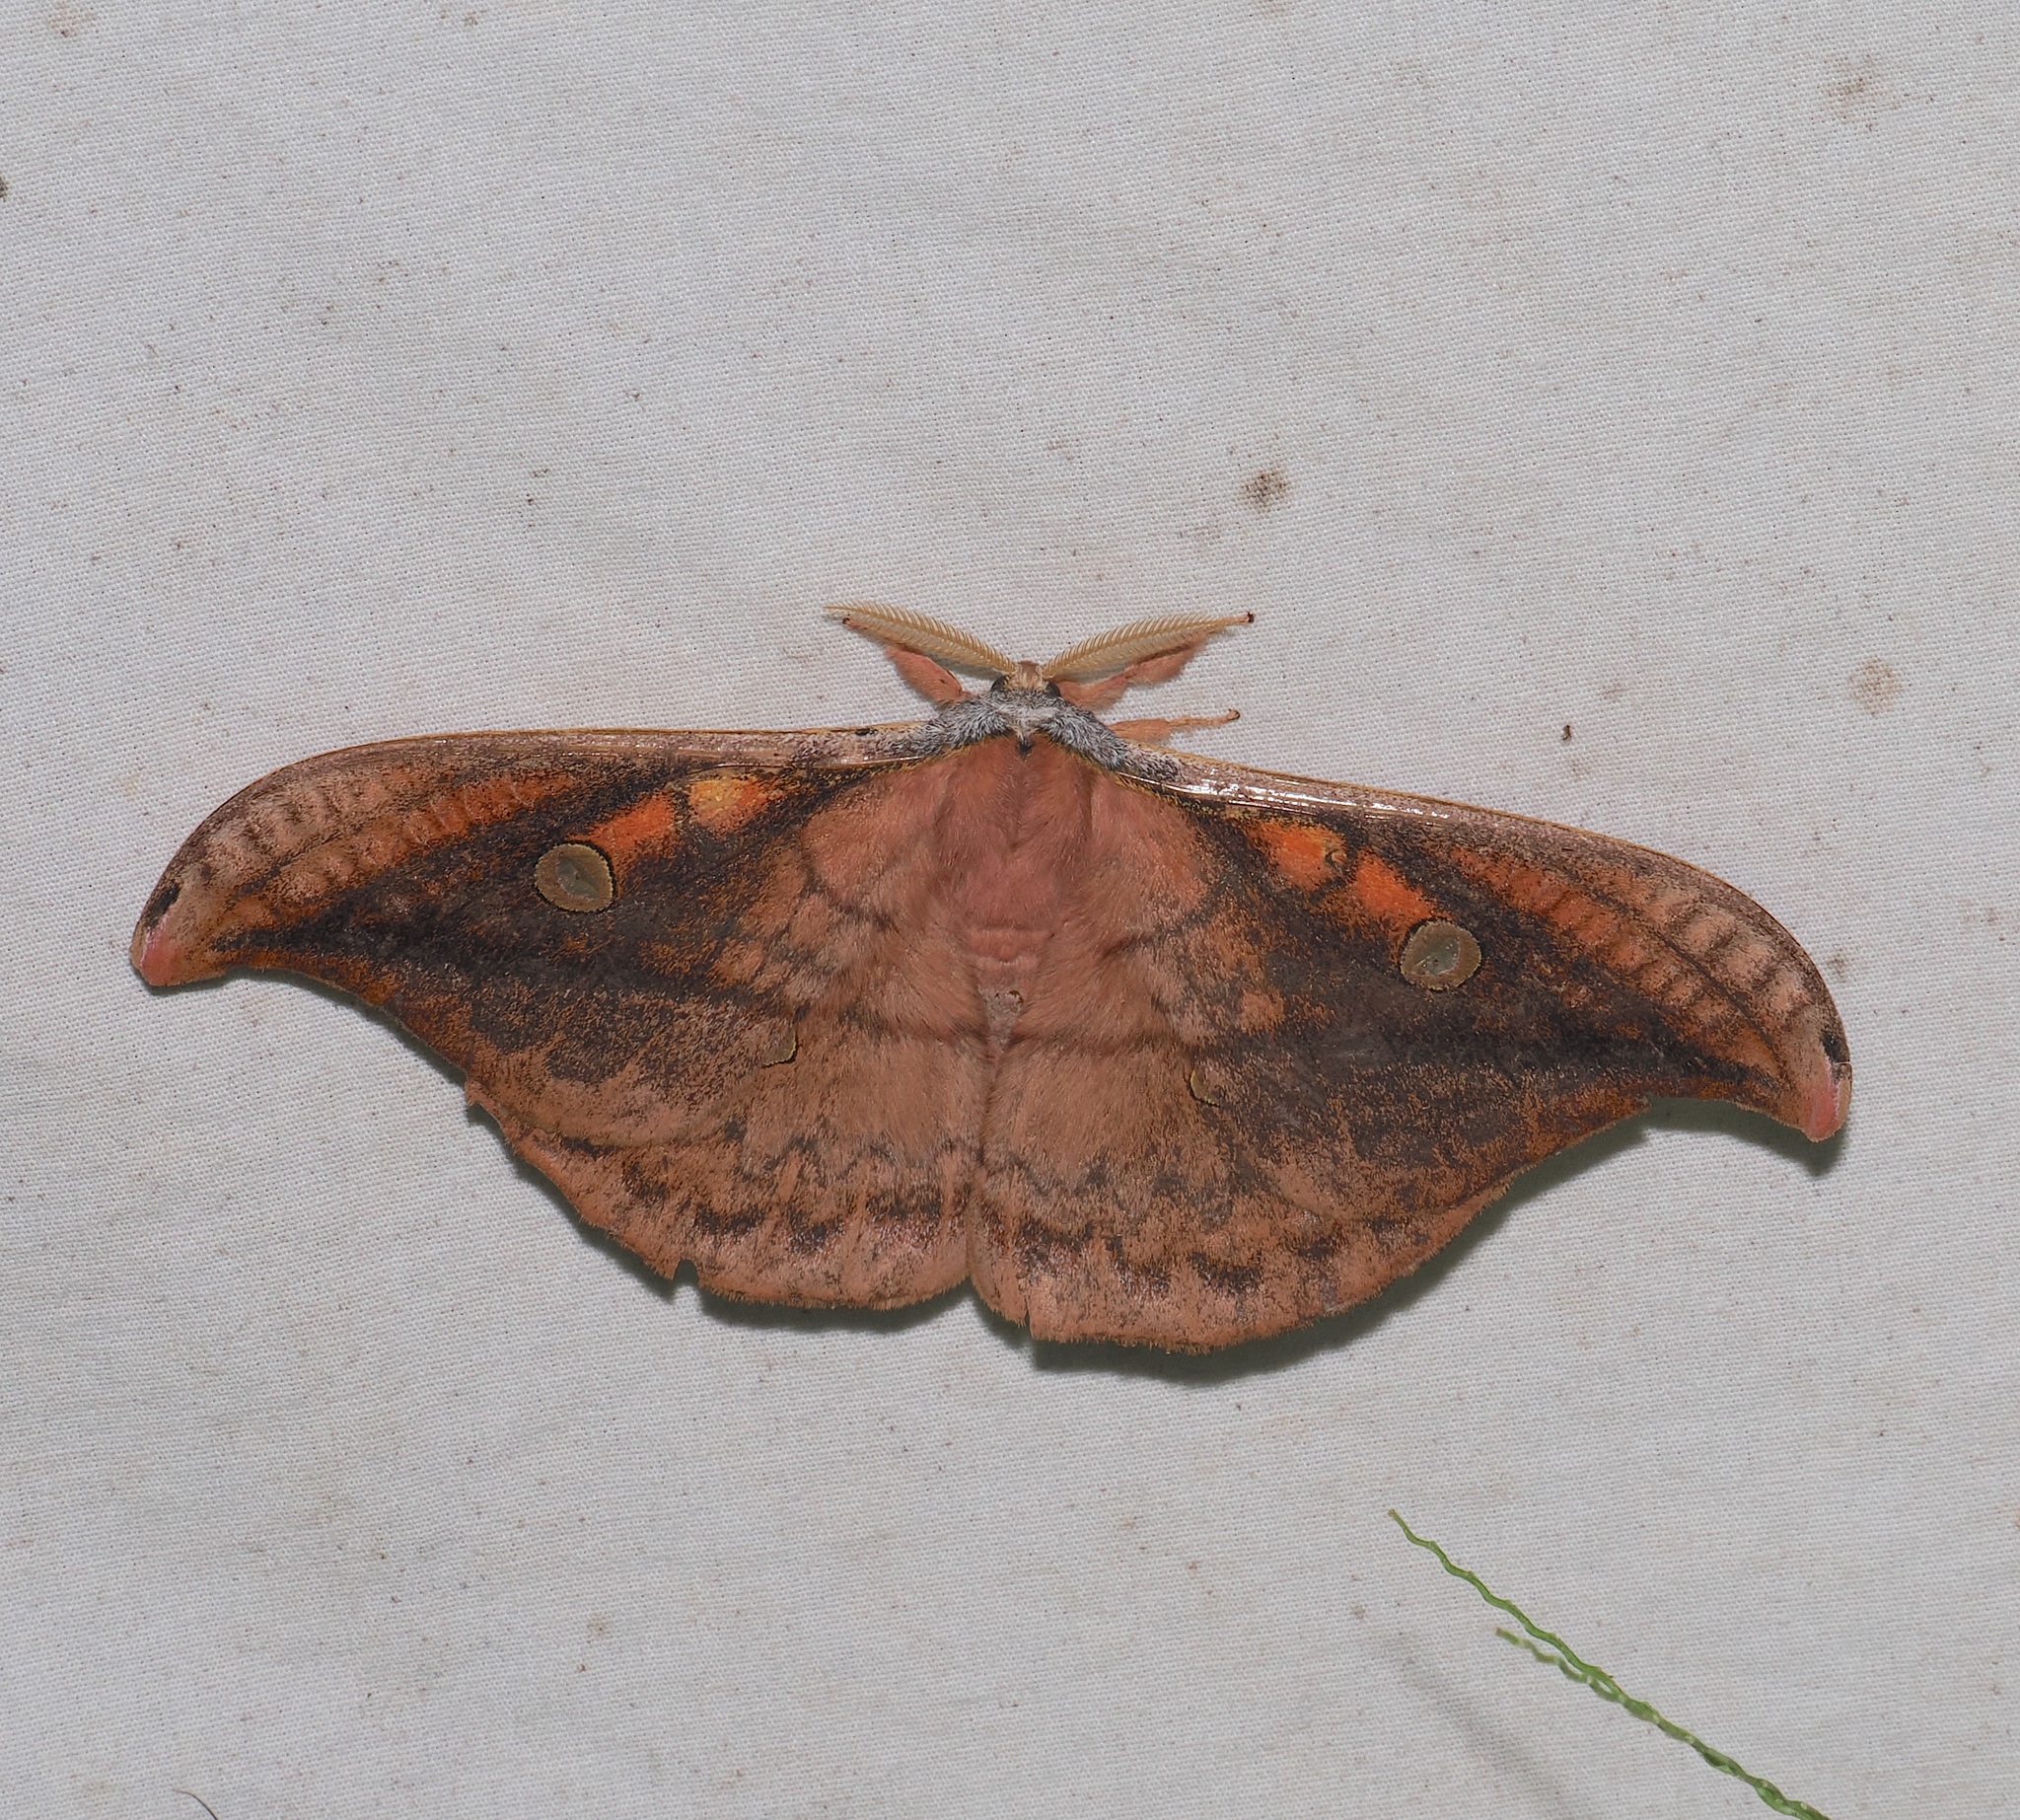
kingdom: Animalia
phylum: Arthropoda
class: Insecta
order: Lepidoptera
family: Saturniidae
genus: Copaxa
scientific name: Copaxa flavobrunnea
